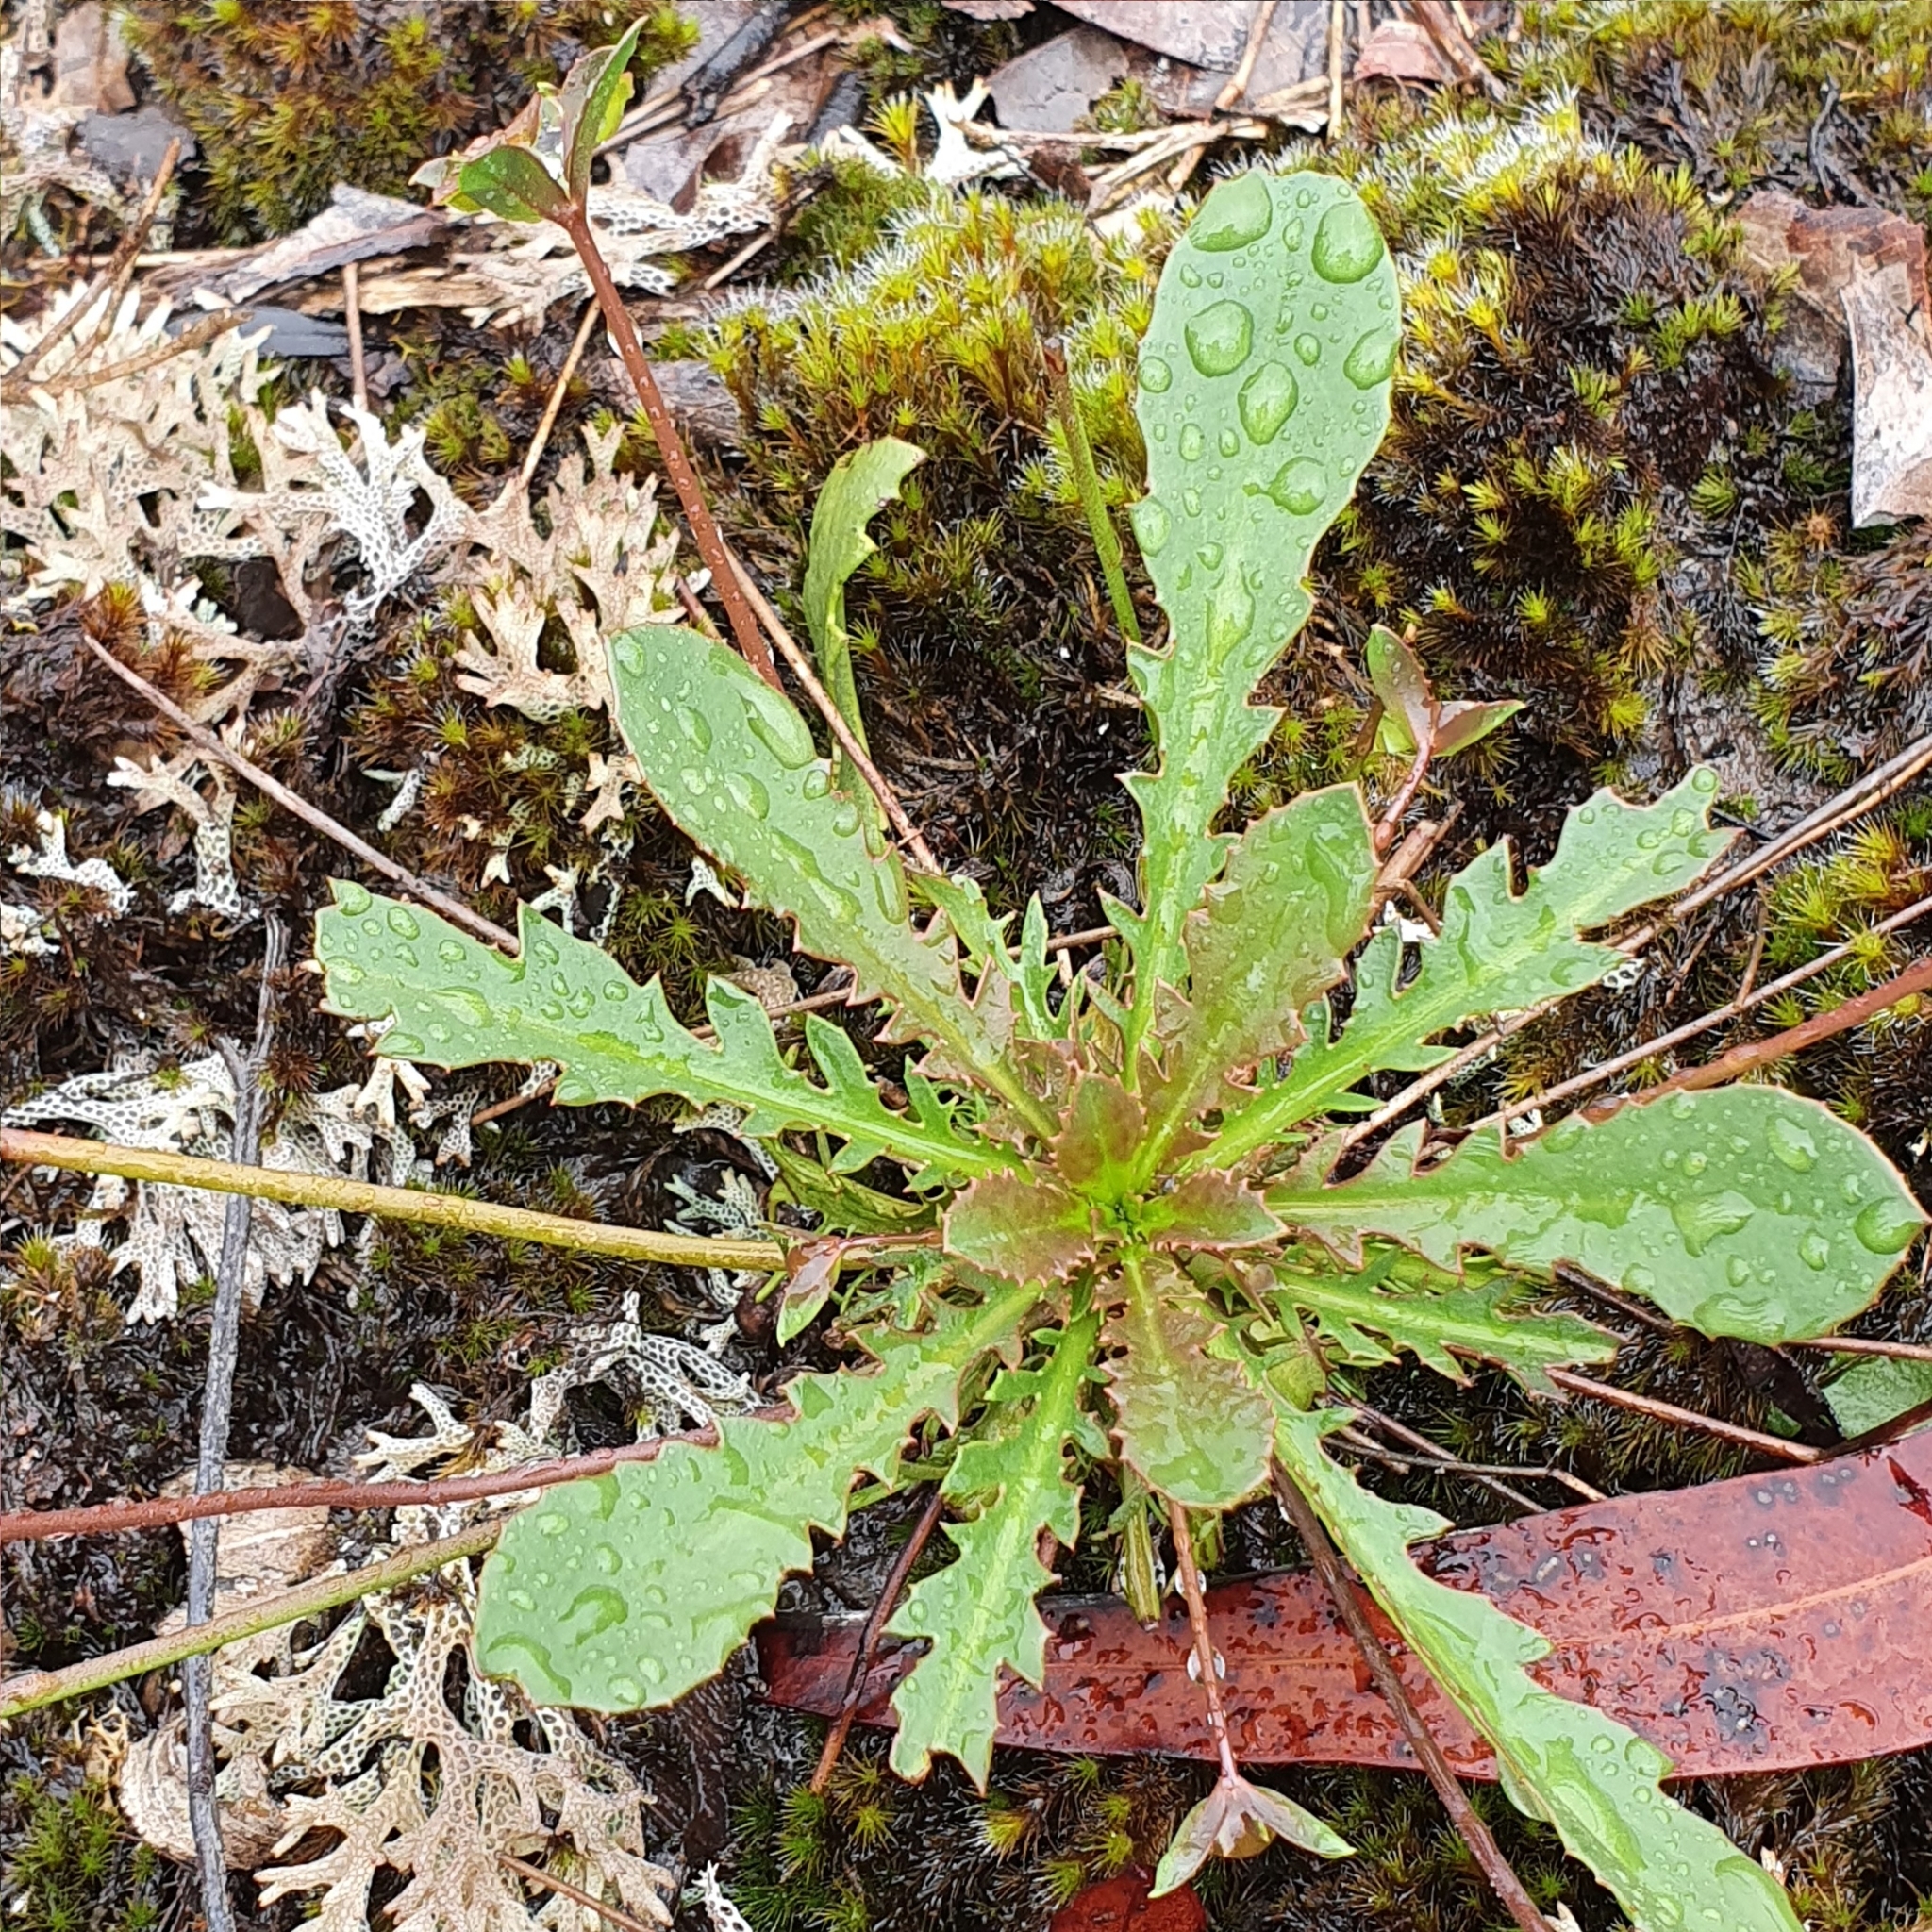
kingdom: Plantae
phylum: Tracheophyta
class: Magnoliopsida
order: Asterales
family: Goodeniaceae
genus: Goodenia
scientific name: Goodenia caroliniana
